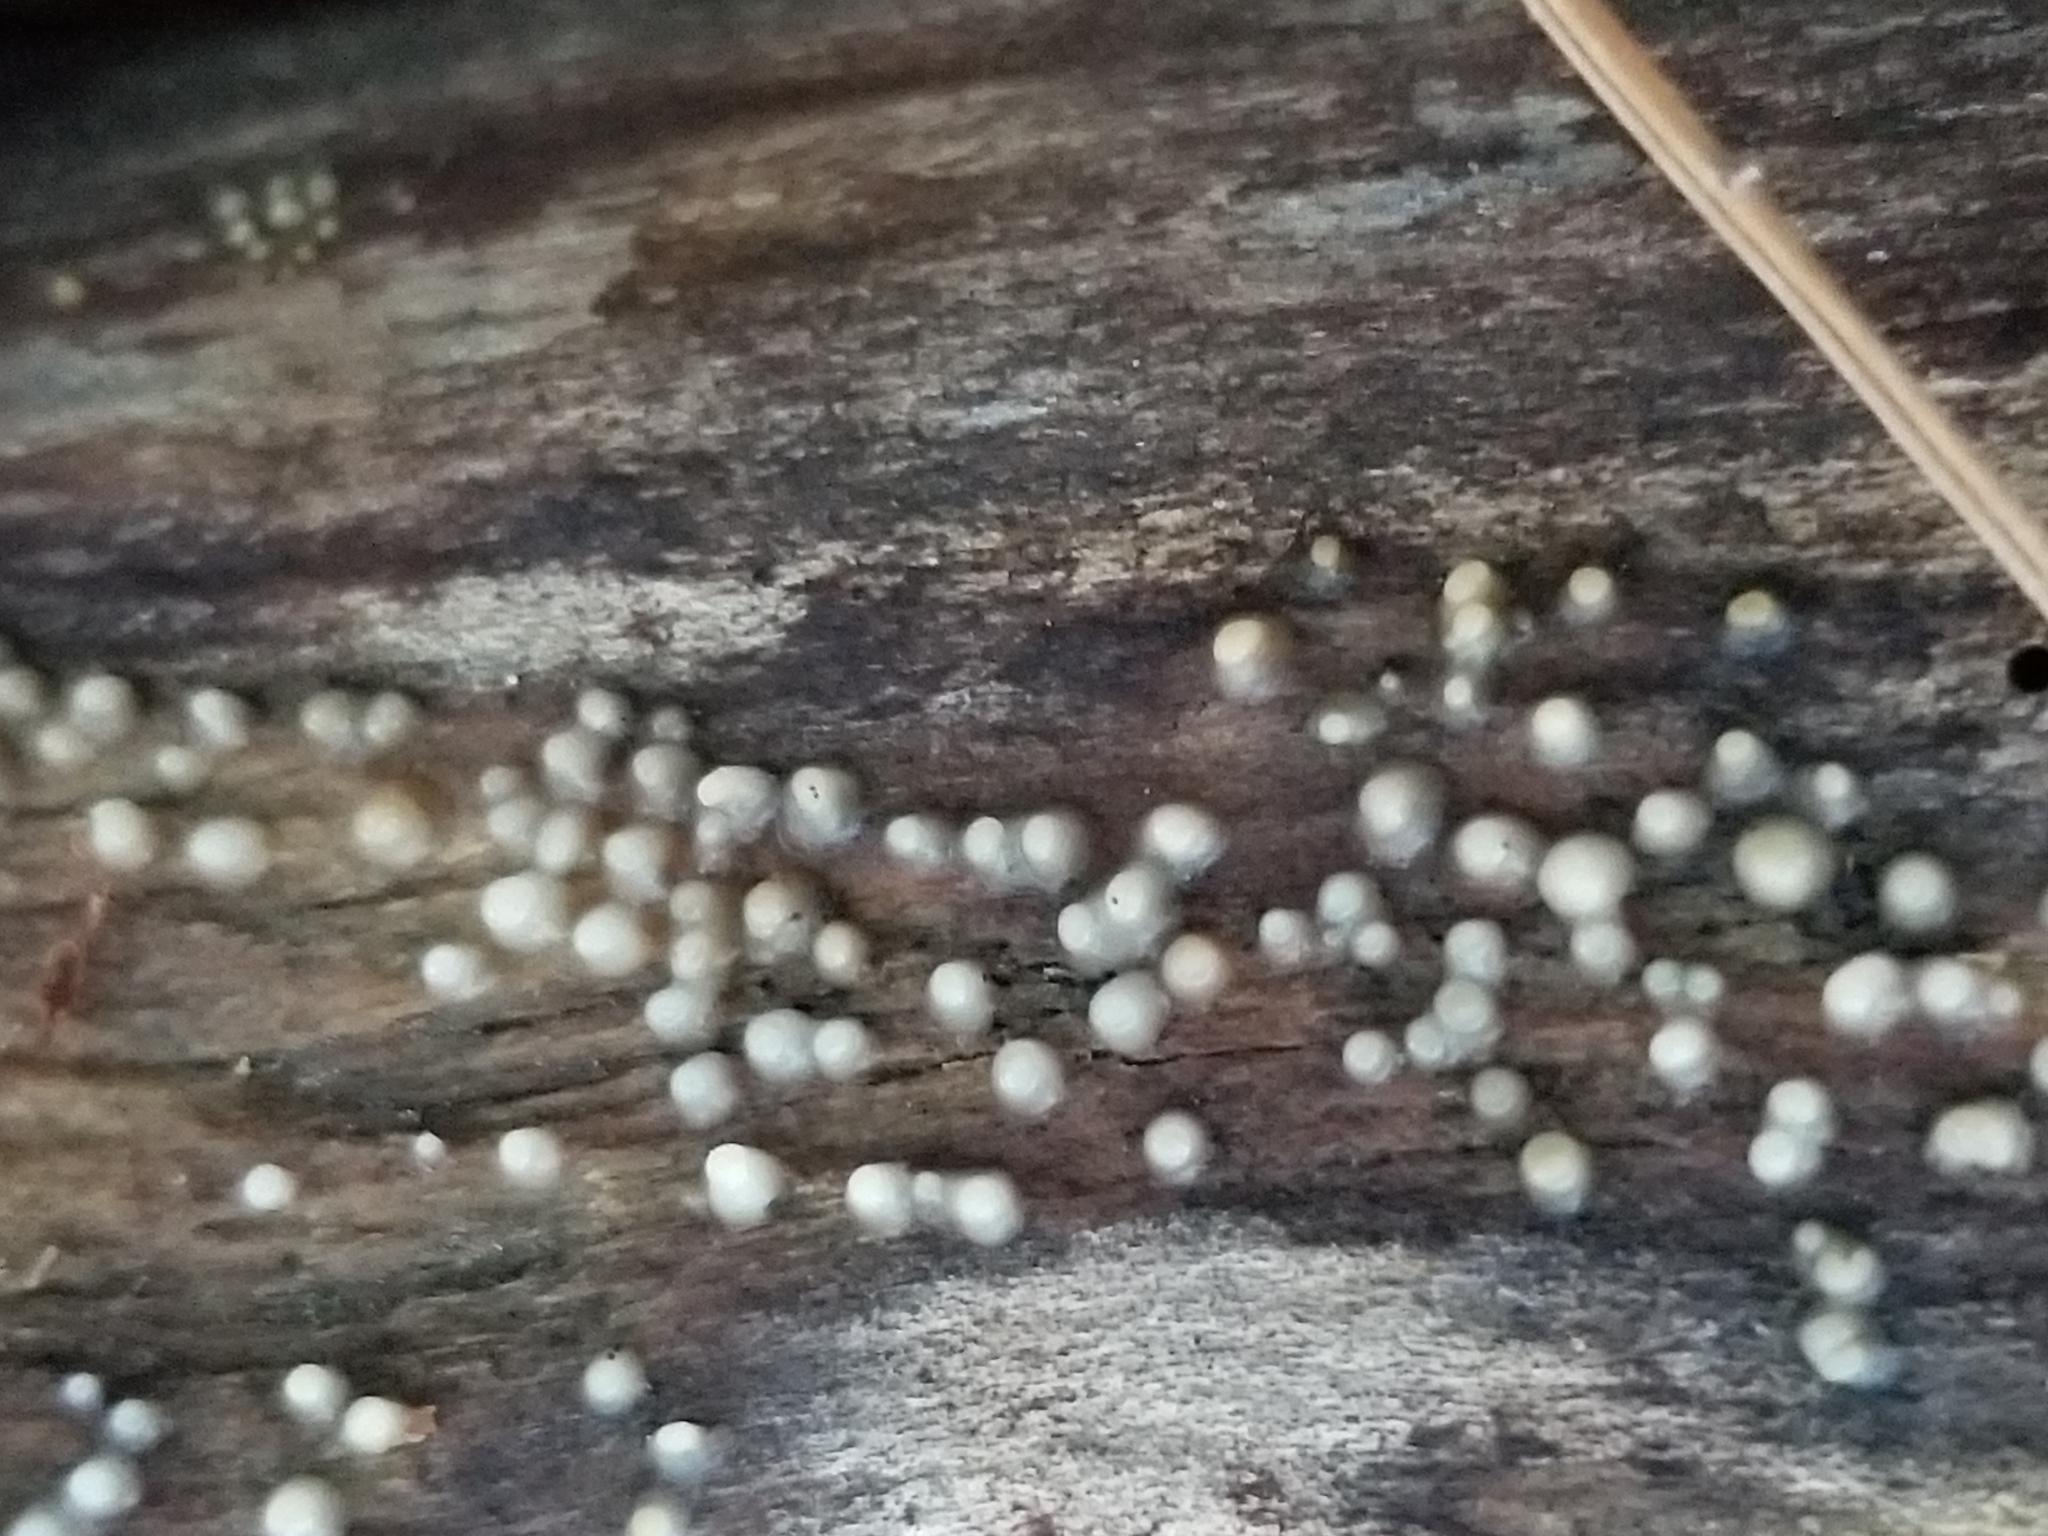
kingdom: Fungi
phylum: Basidiomycota
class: Atractiellomycetes
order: Atractiellales
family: Phleogenaceae
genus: Helicogloea
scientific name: Helicogloea compressa
